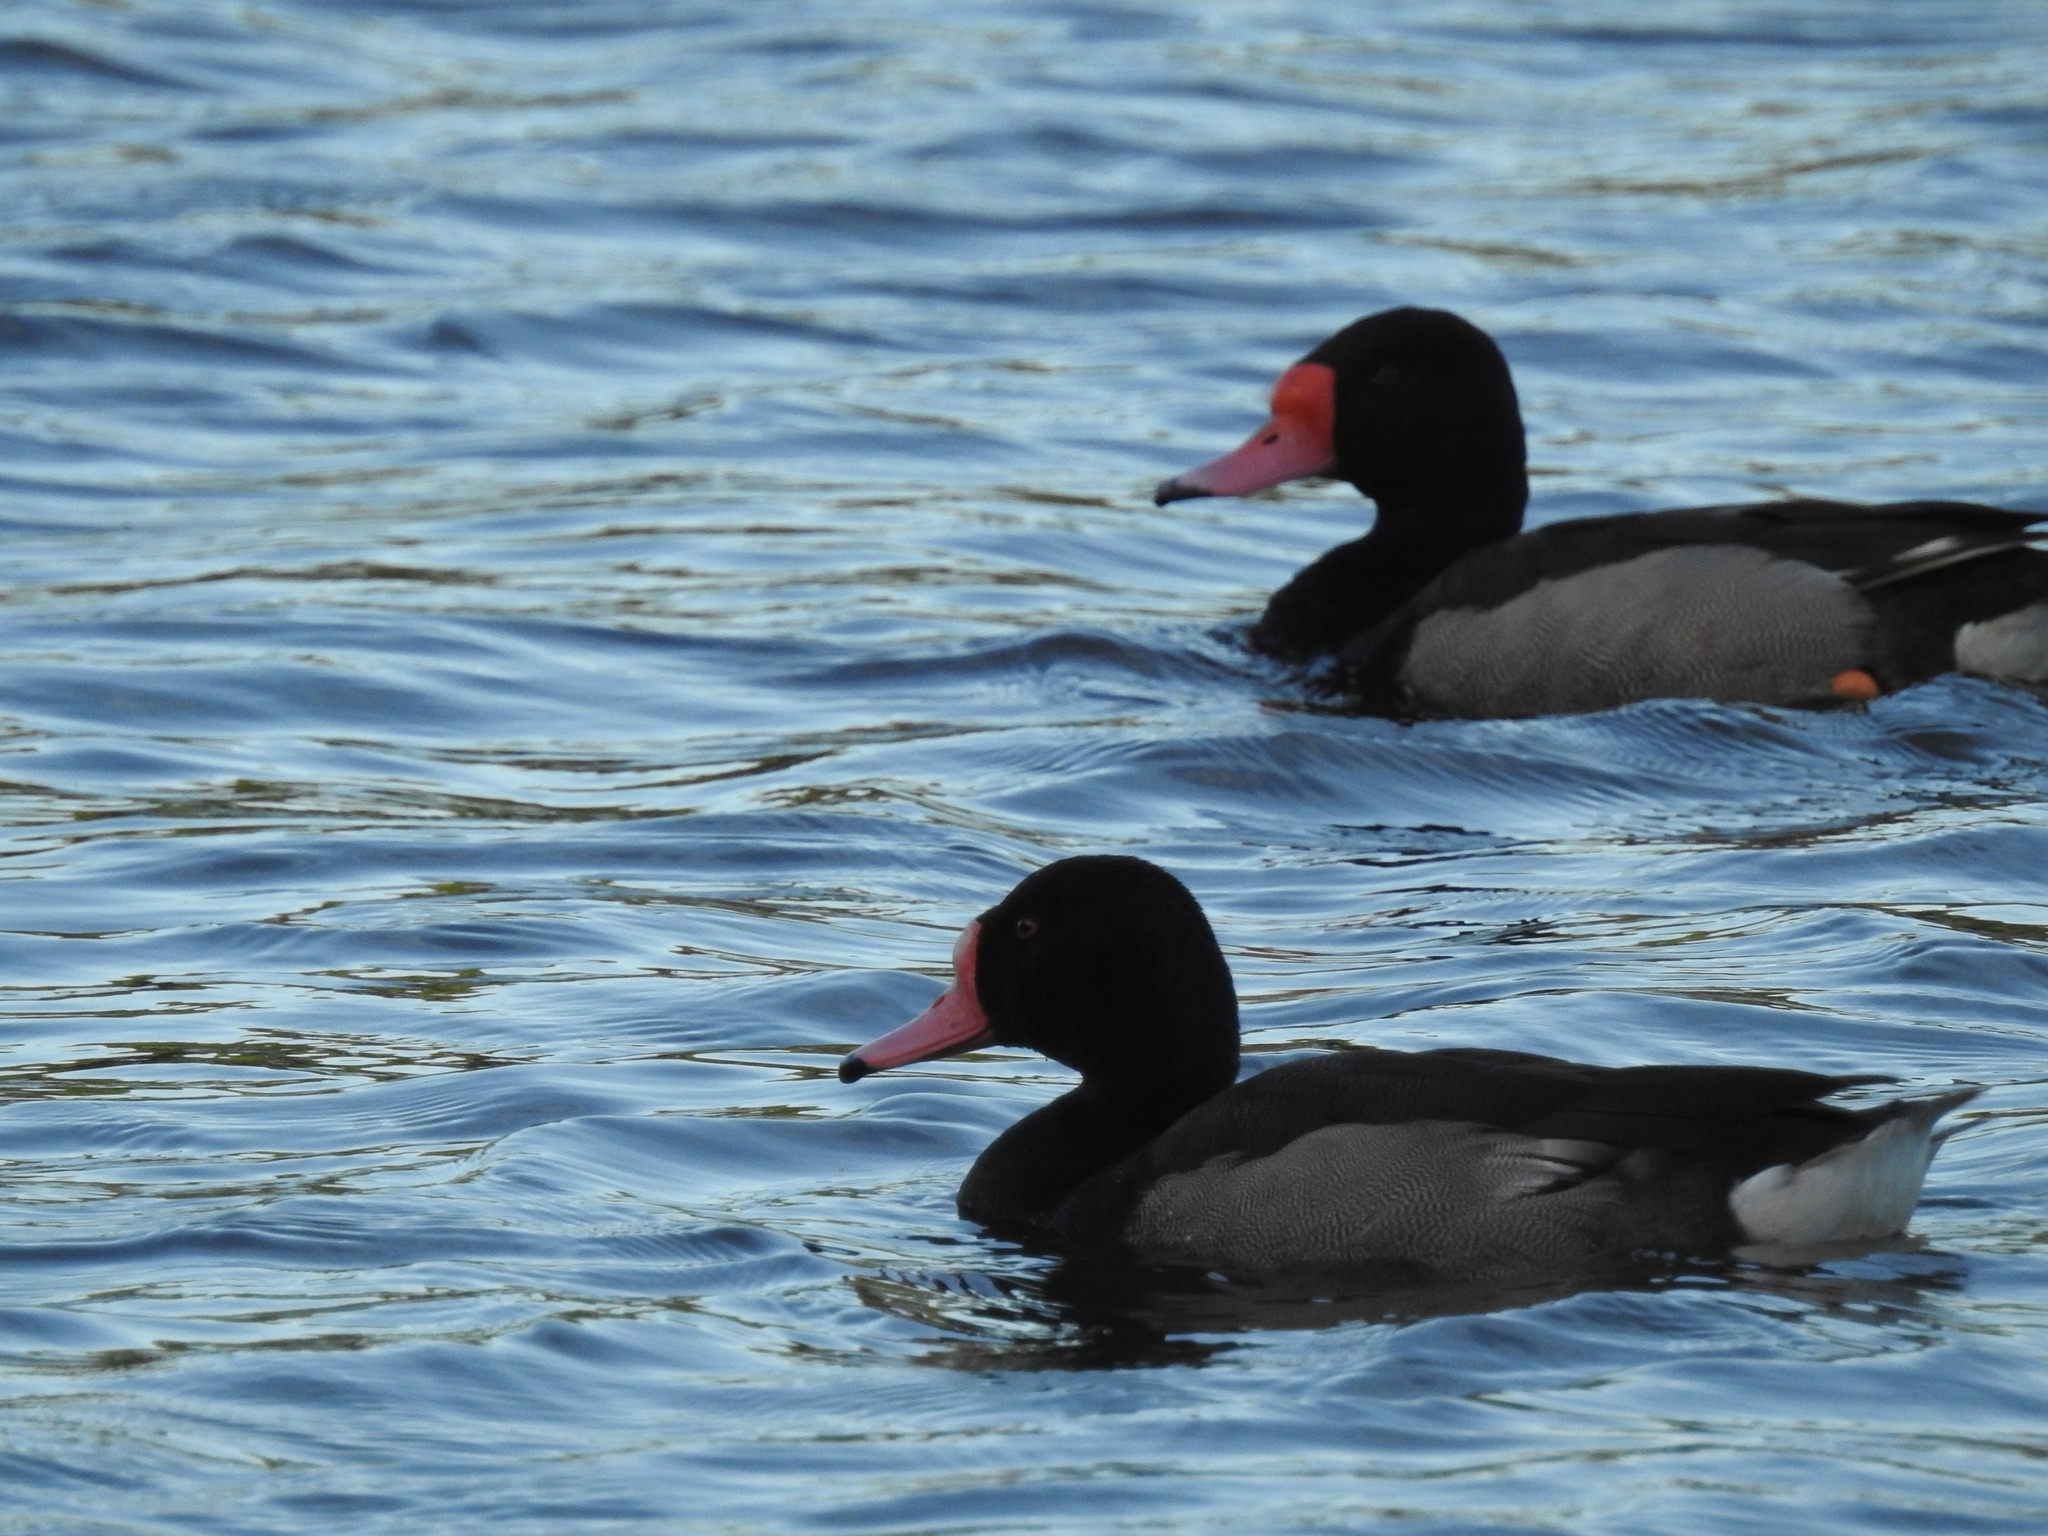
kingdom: Animalia
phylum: Chordata
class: Aves
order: Anseriformes
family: Anatidae
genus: Netta
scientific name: Netta peposaca
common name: Rosy-billed pochard
